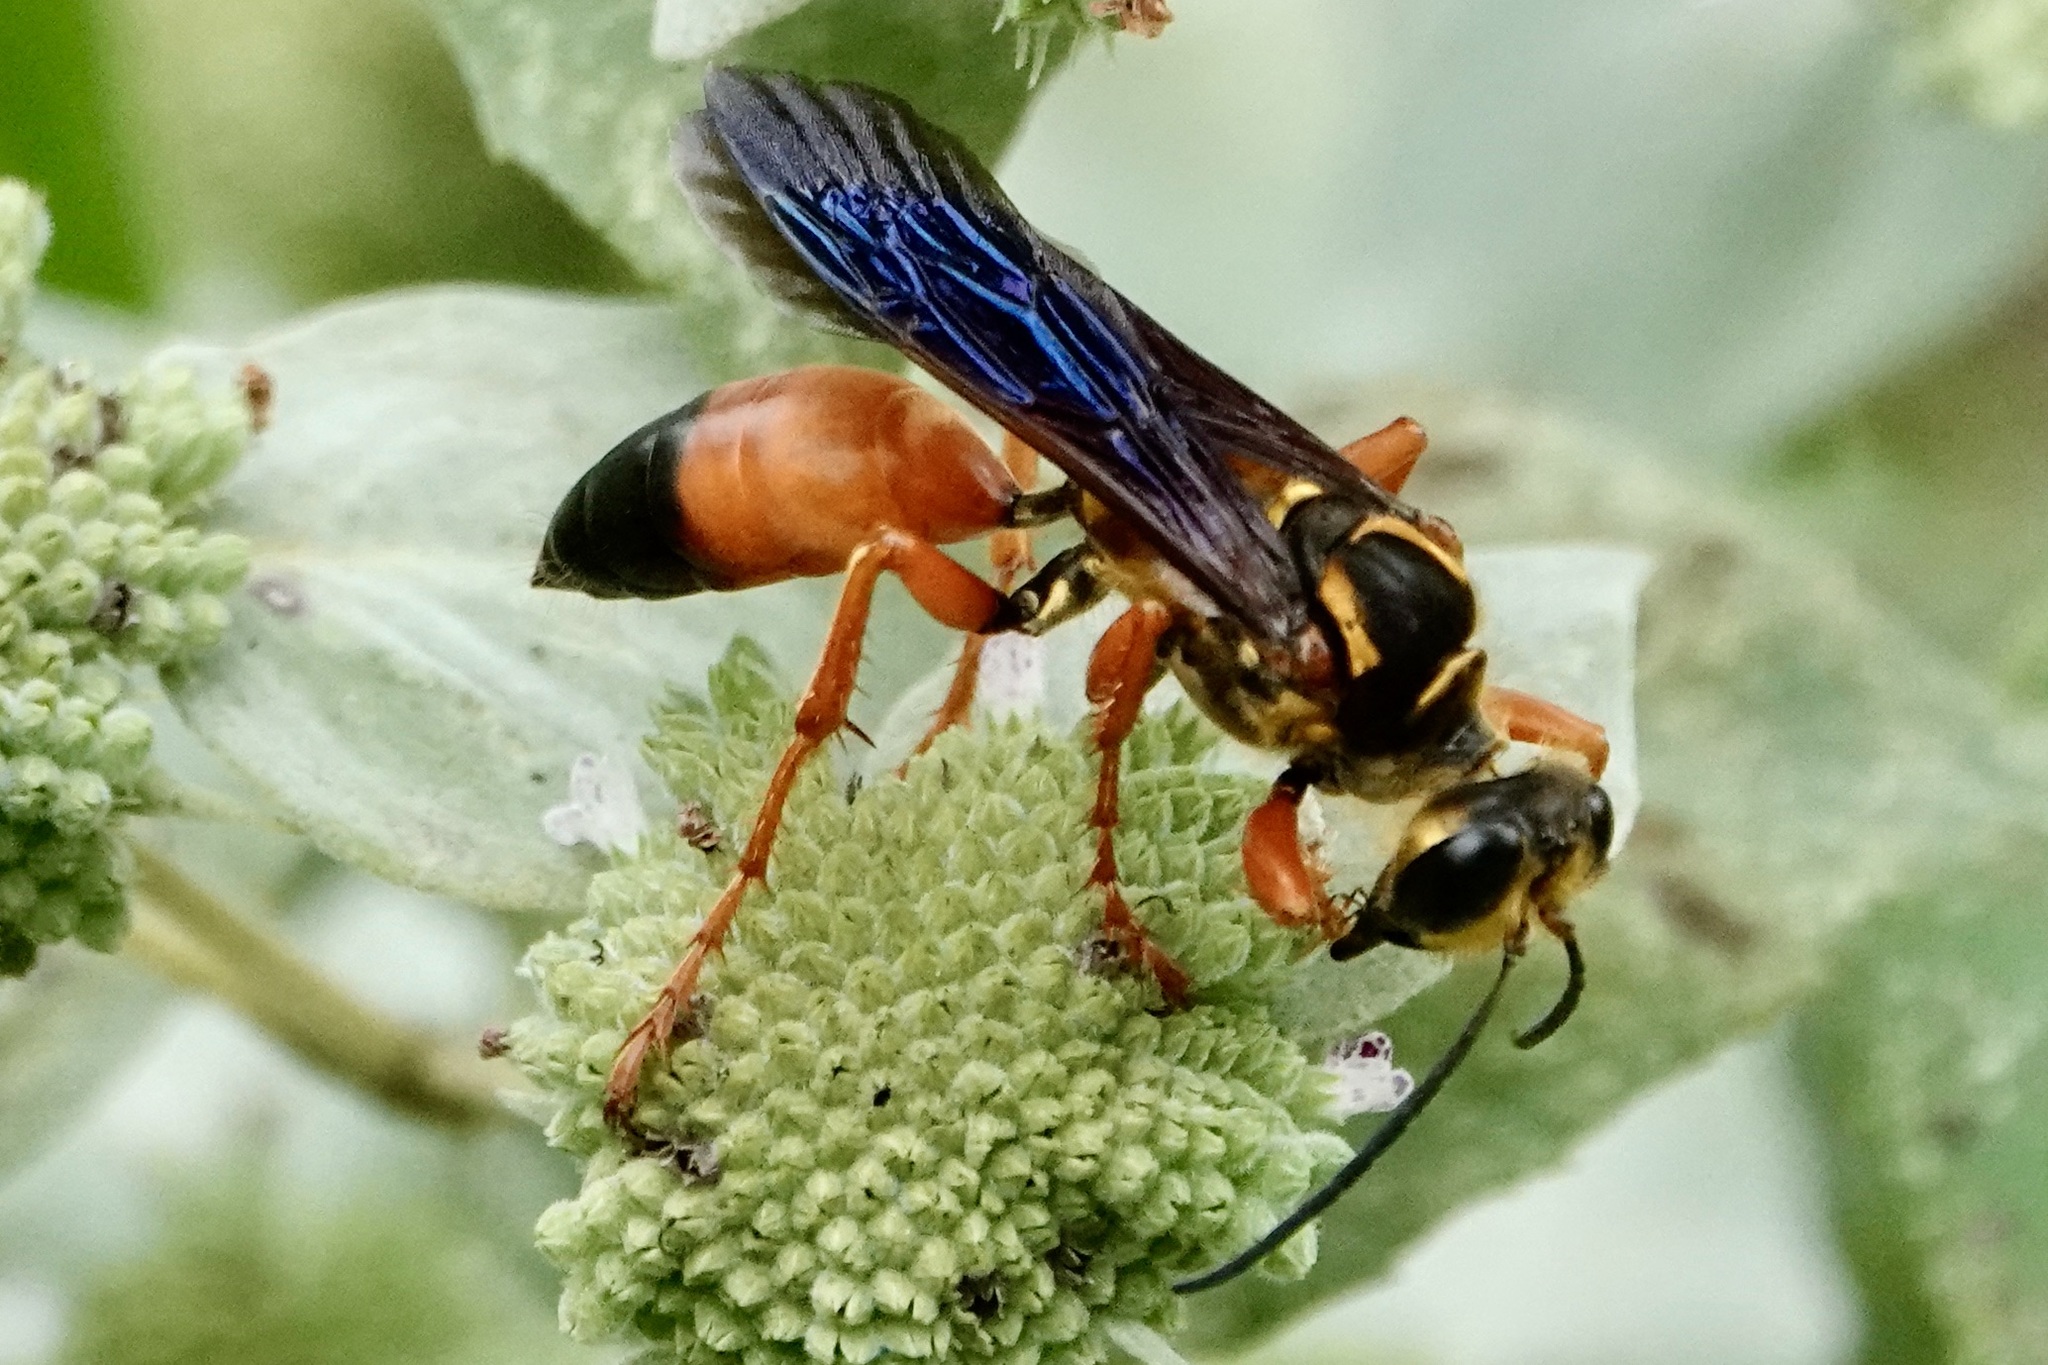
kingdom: Animalia
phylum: Arthropoda
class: Insecta
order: Hymenoptera
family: Sphecidae
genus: Sphex
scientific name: Sphex ichneumoneus
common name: Great golden digger wasp
